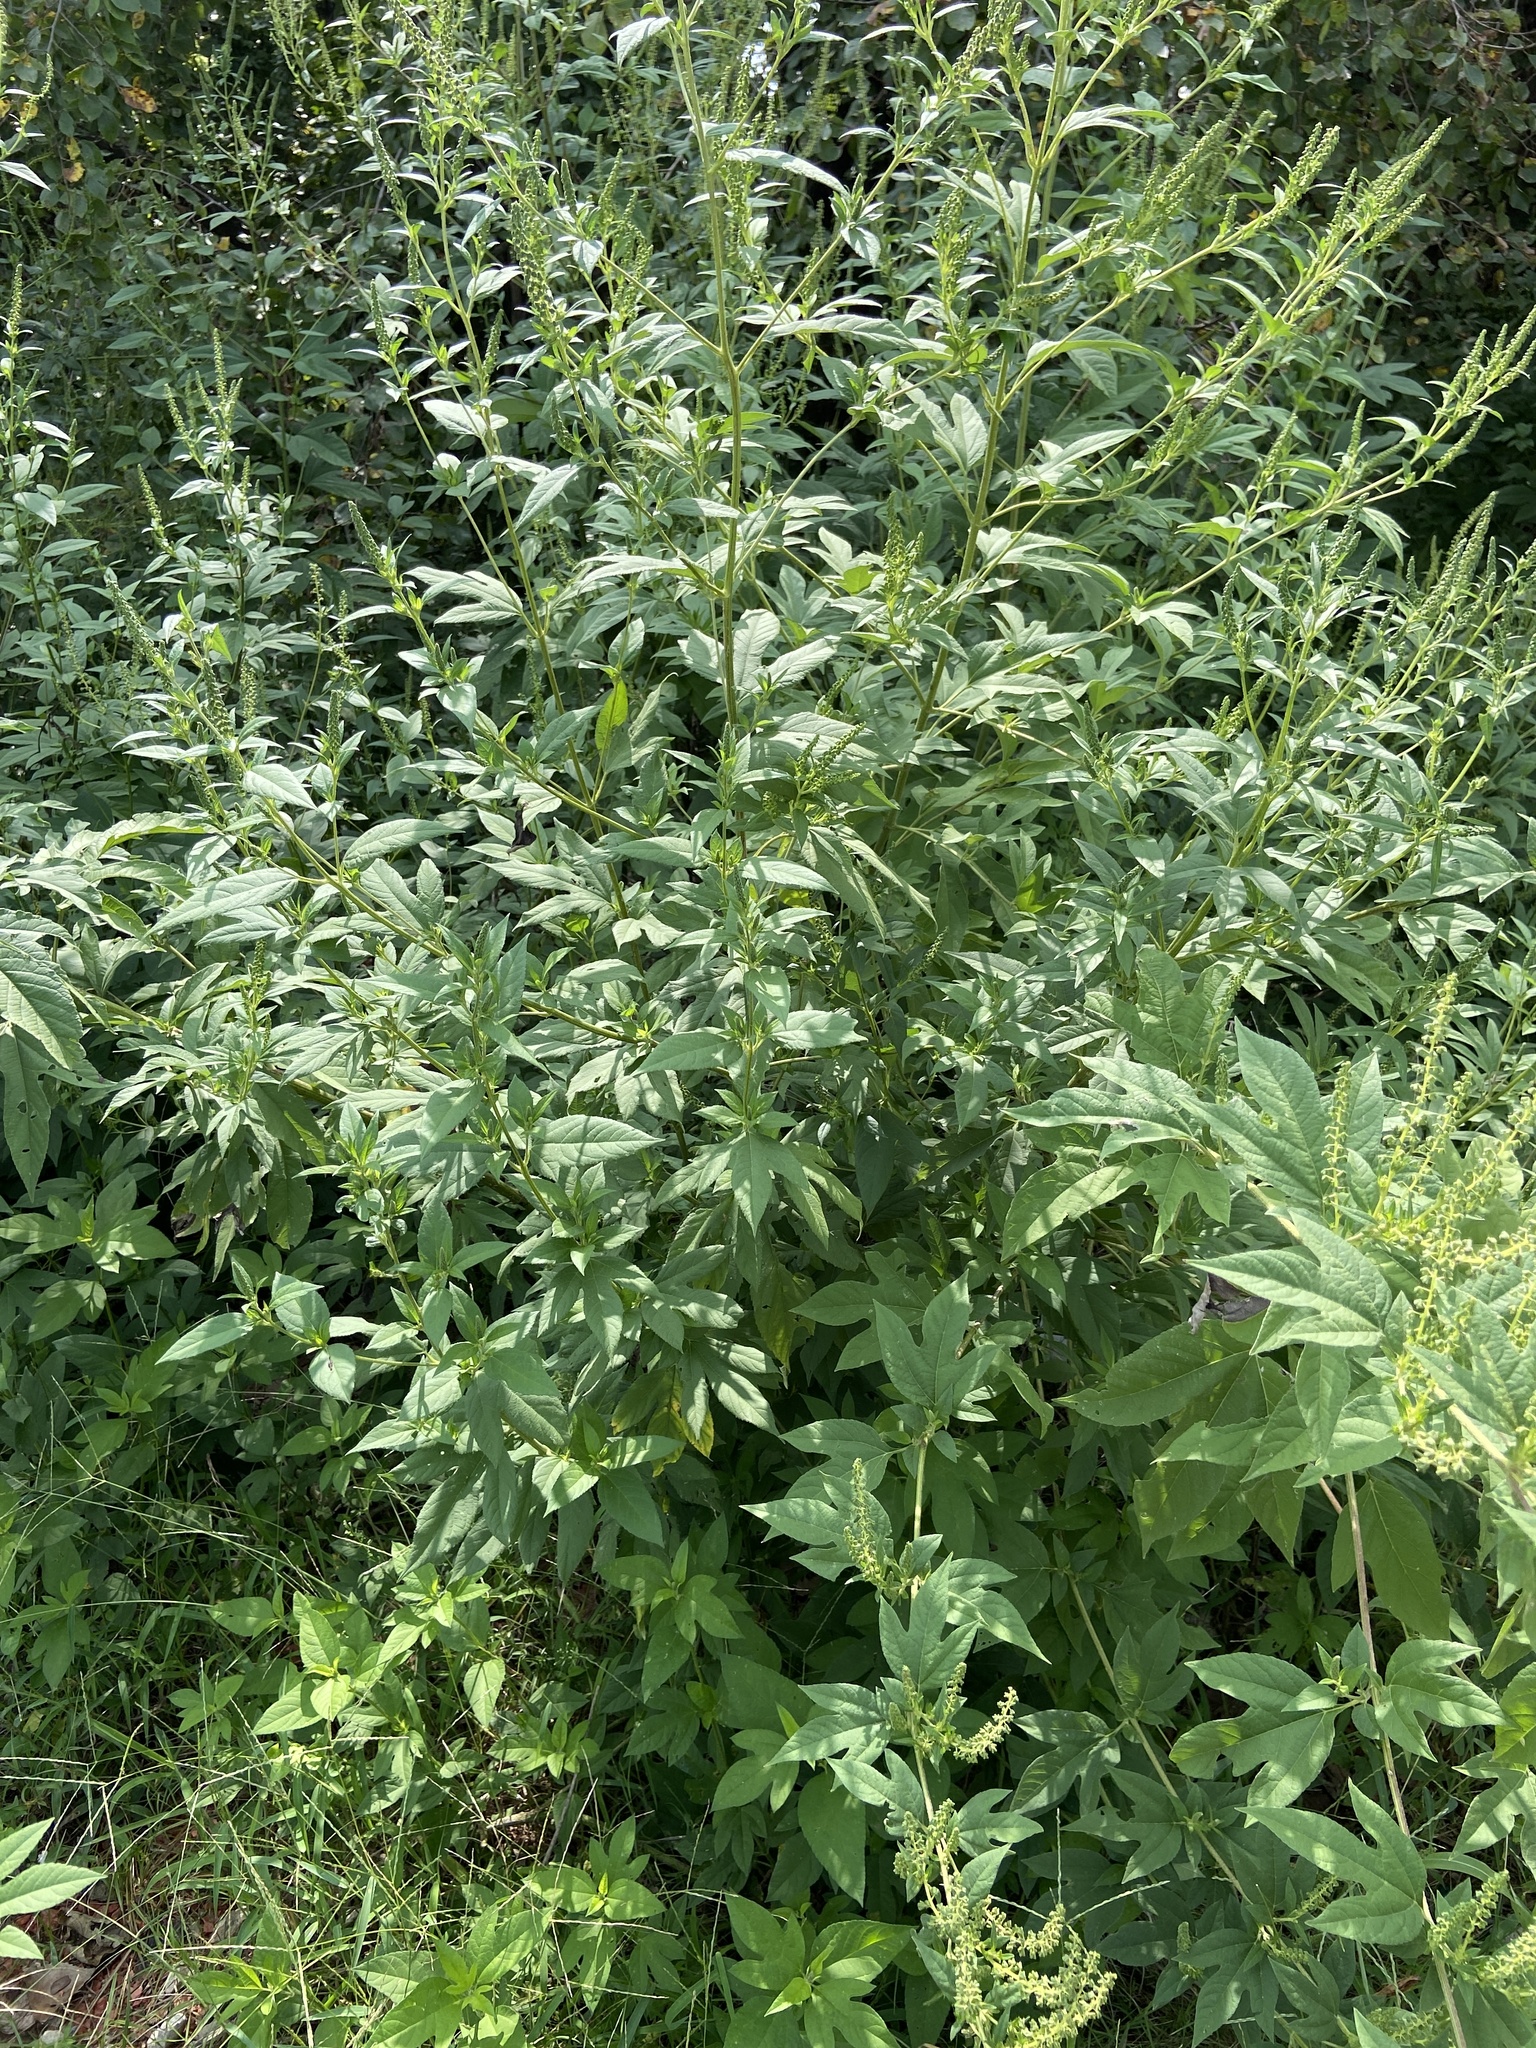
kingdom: Plantae
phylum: Tracheophyta
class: Magnoliopsida
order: Asterales
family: Asteraceae
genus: Ambrosia
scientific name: Ambrosia trifida
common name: Giant ragweed
